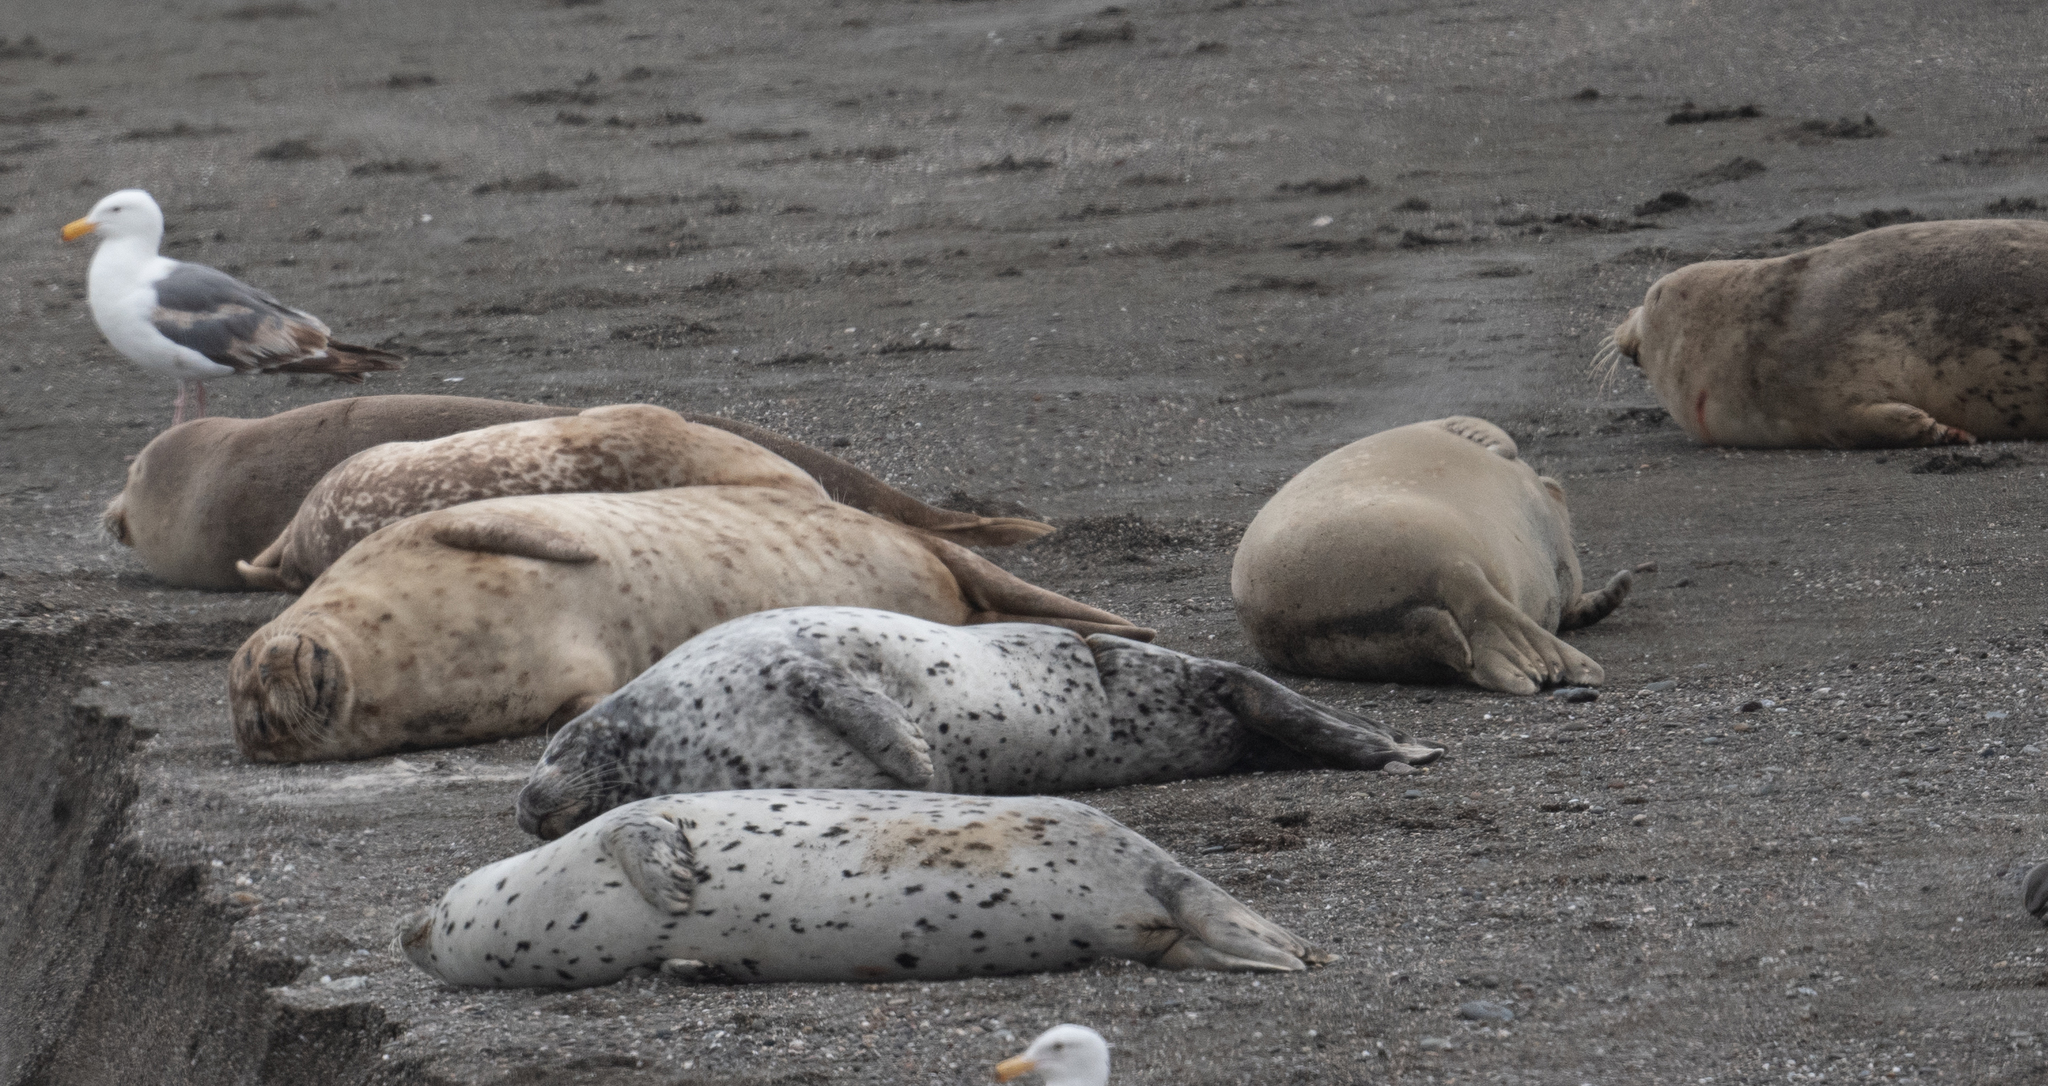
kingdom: Animalia
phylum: Chordata
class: Mammalia
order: Carnivora
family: Phocidae
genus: Phoca
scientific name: Phoca vitulina
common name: Harbor seal
